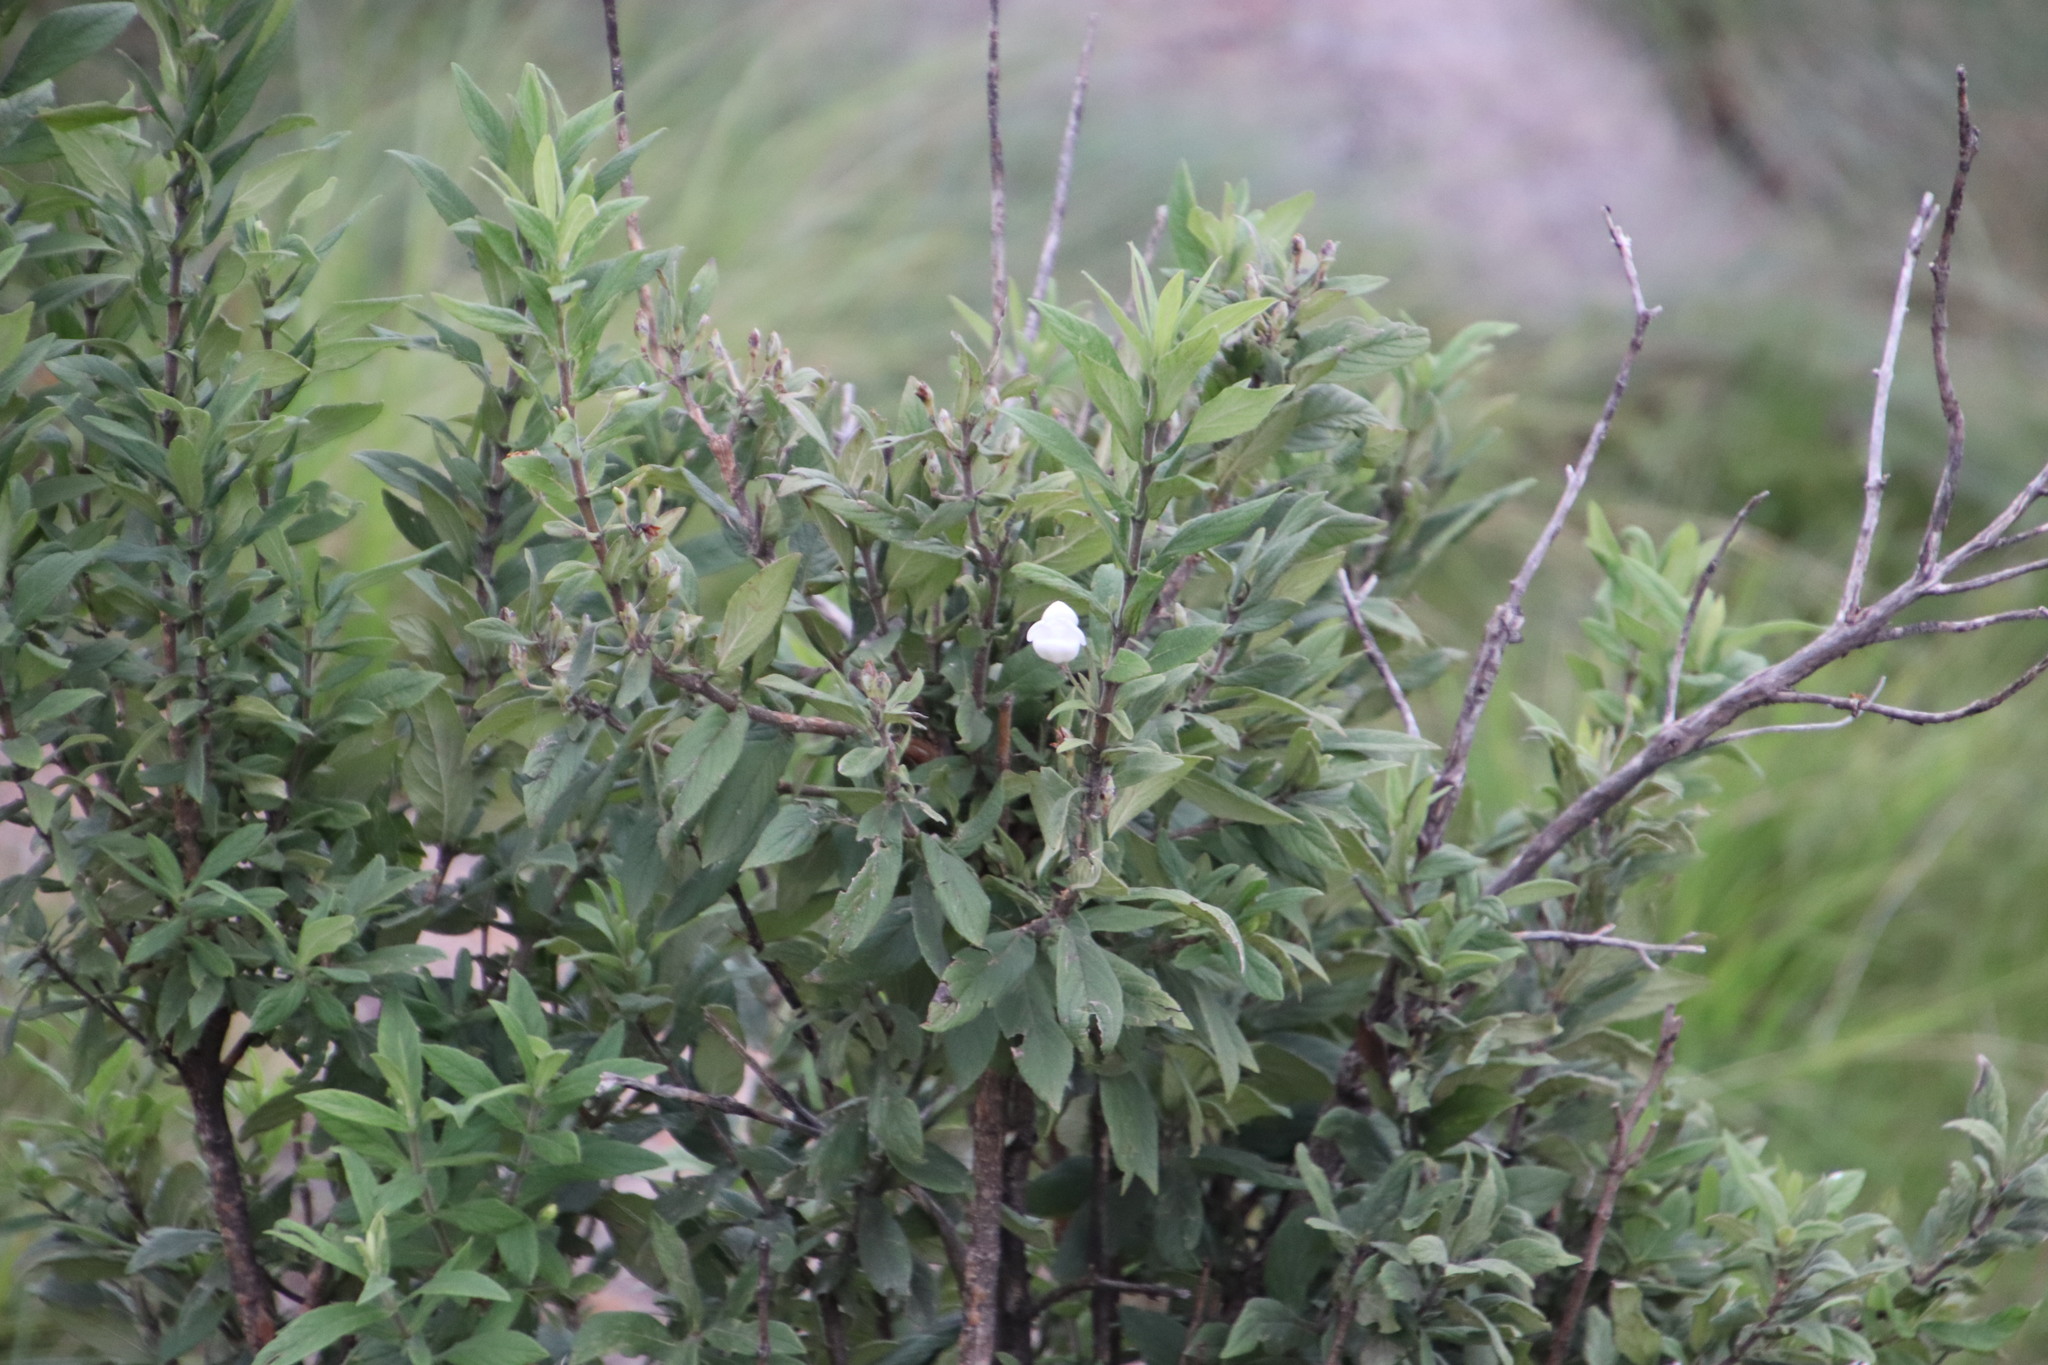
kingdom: Plantae
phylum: Tracheophyta
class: Magnoliopsida
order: Lamiales
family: Stilbaceae
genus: Bowkeria
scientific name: Bowkeria verticillata
